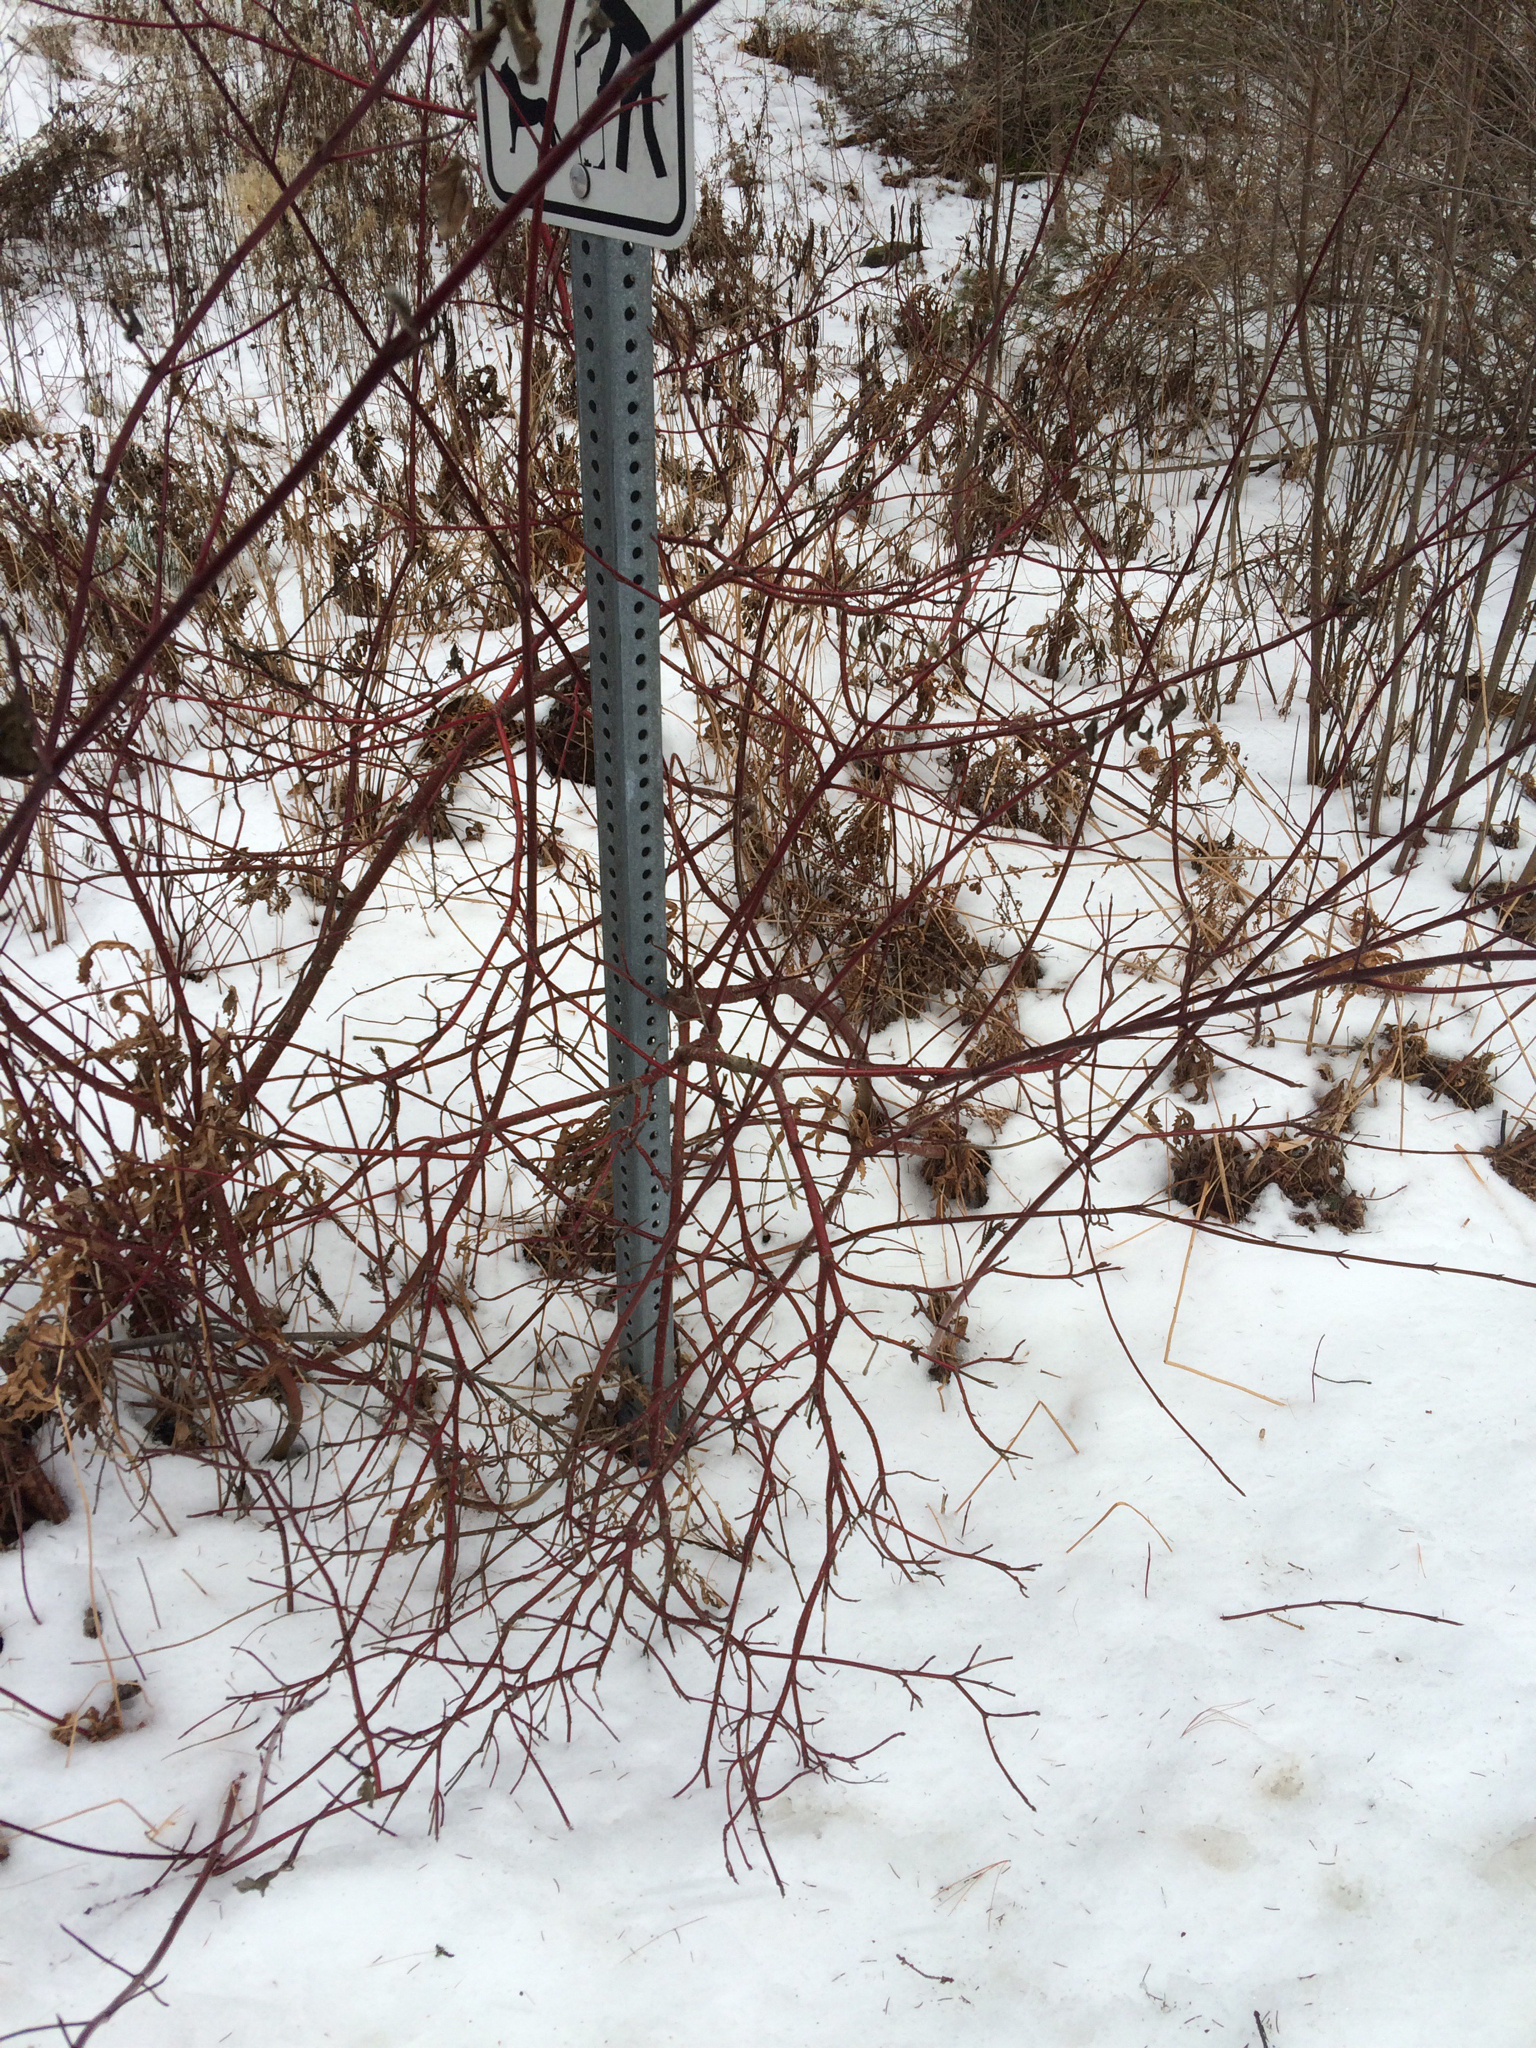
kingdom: Plantae
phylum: Tracheophyta
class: Magnoliopsida
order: Cornales
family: Cornaceae
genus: Cornus
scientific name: Cornus sericea
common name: Red-osier dogwood
